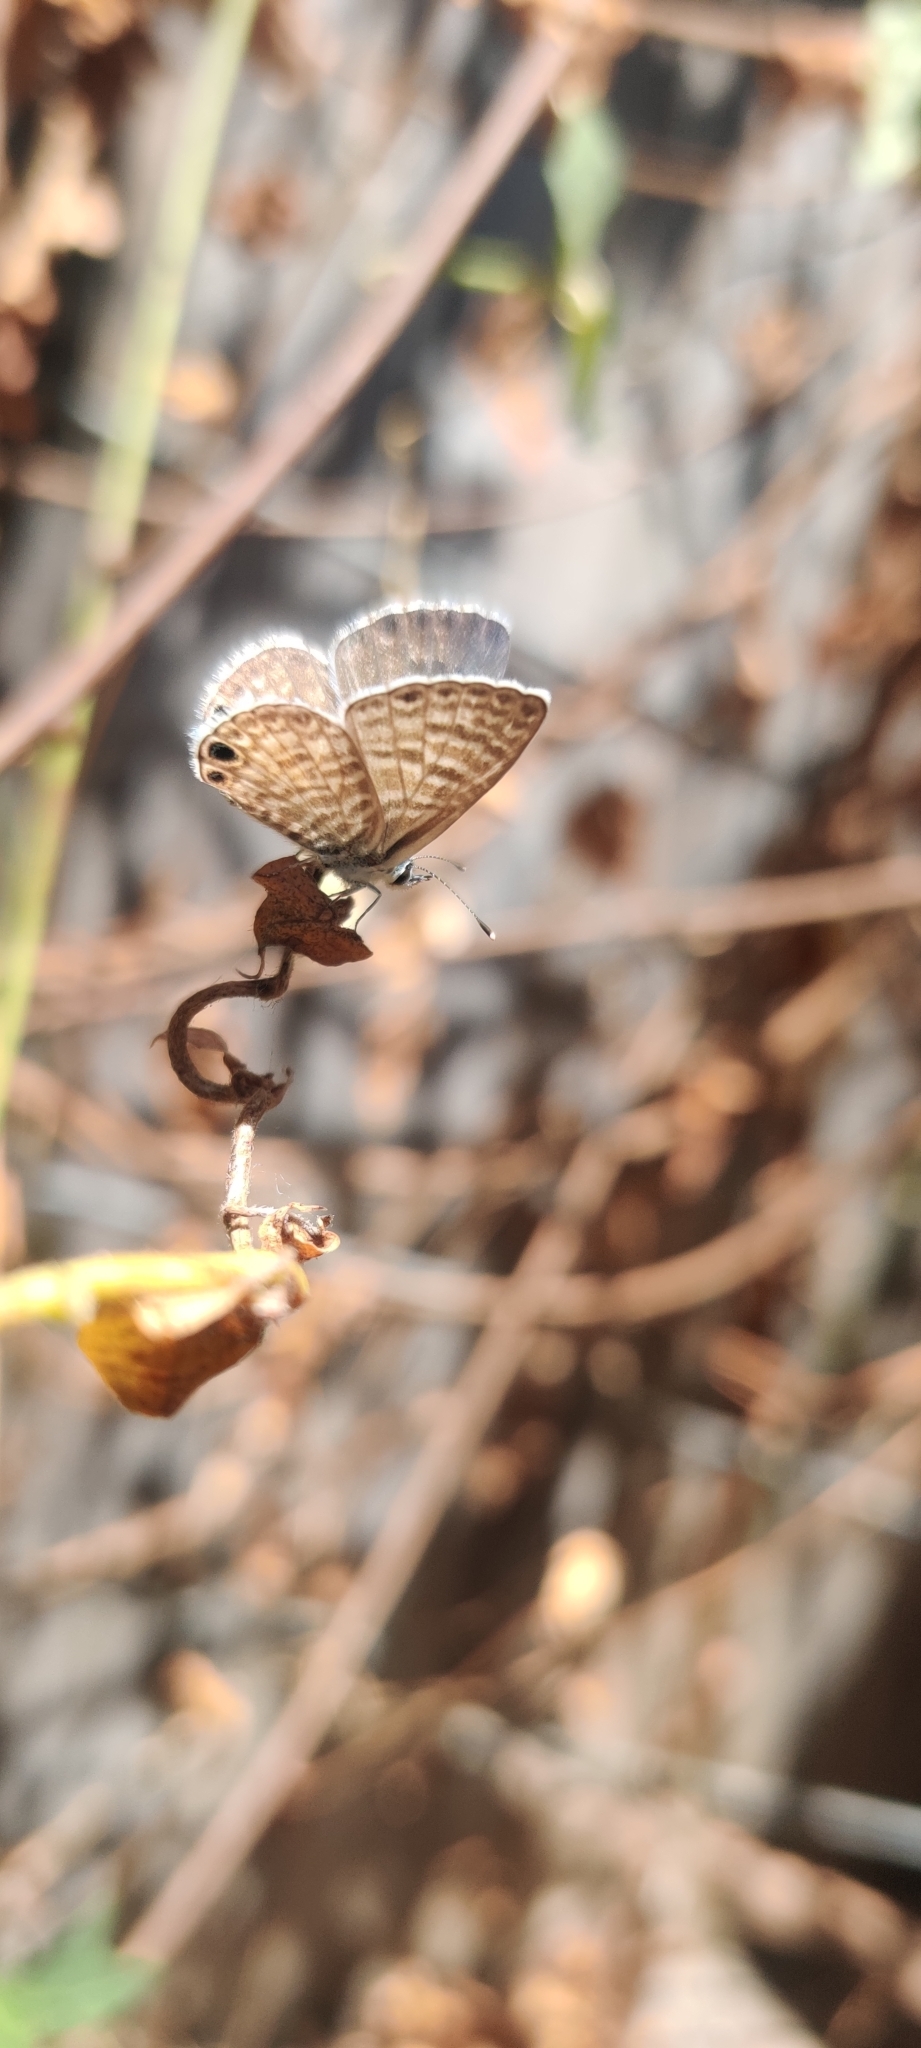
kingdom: Animalia
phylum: Arthropoda
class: Insecta
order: Lepidoptera
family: Lycaenidae
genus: Leptotes
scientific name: Leptotes marina
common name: Marine blue
